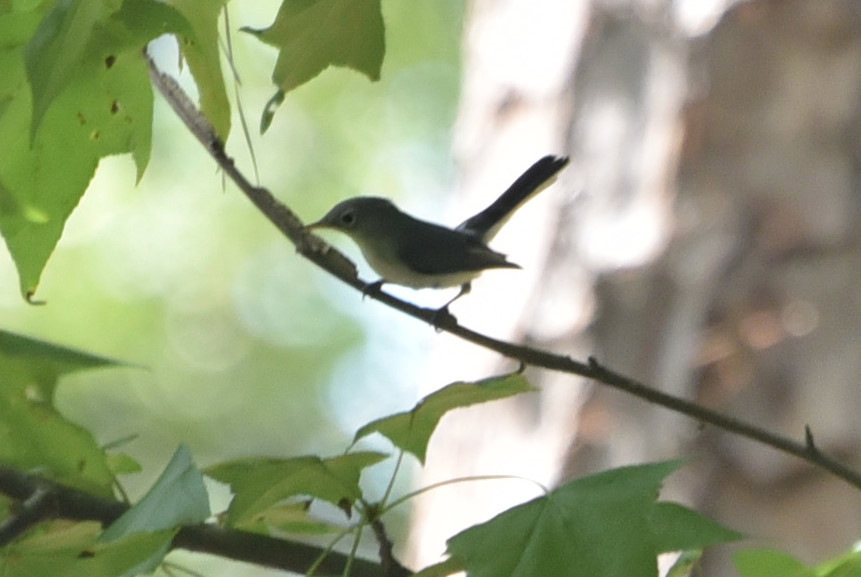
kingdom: Animalia
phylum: Chordata
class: Aves
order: Passeriformes
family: Polioptilidae
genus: Polioptila
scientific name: Polioptila caerulea
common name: Blue-gray gnatcatcher
